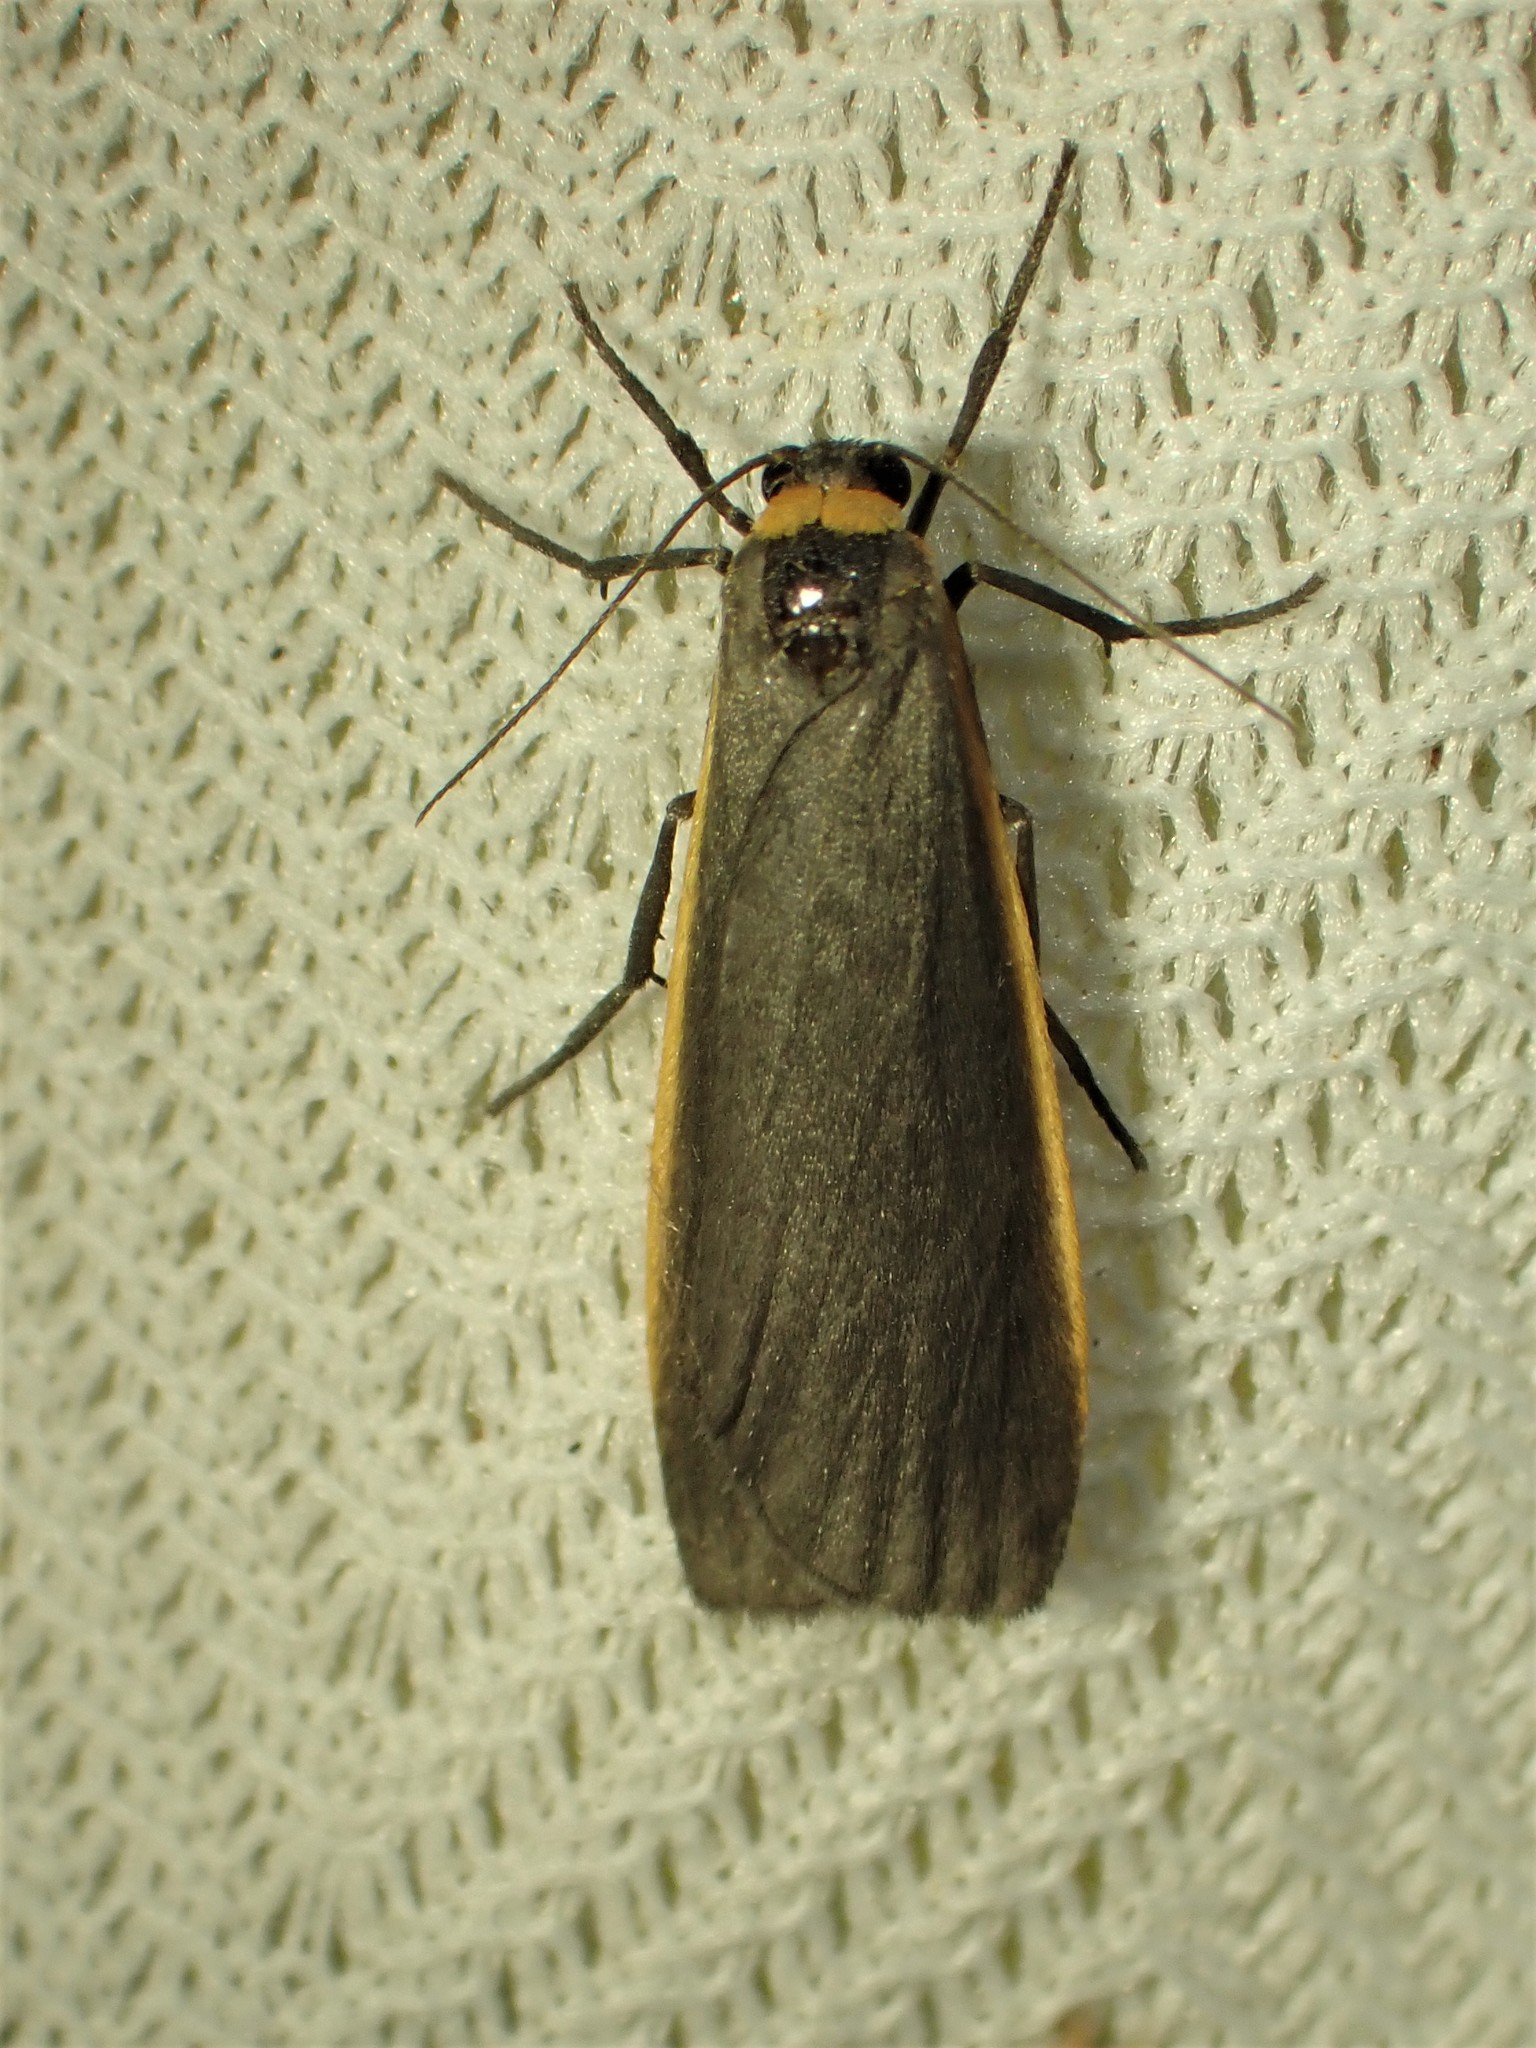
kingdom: Animalia
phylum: Arthropoda
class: Insecta
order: Lepidoptera
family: Erebidae
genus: Manulea
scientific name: Manulea bicolor
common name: Bicolored moth
